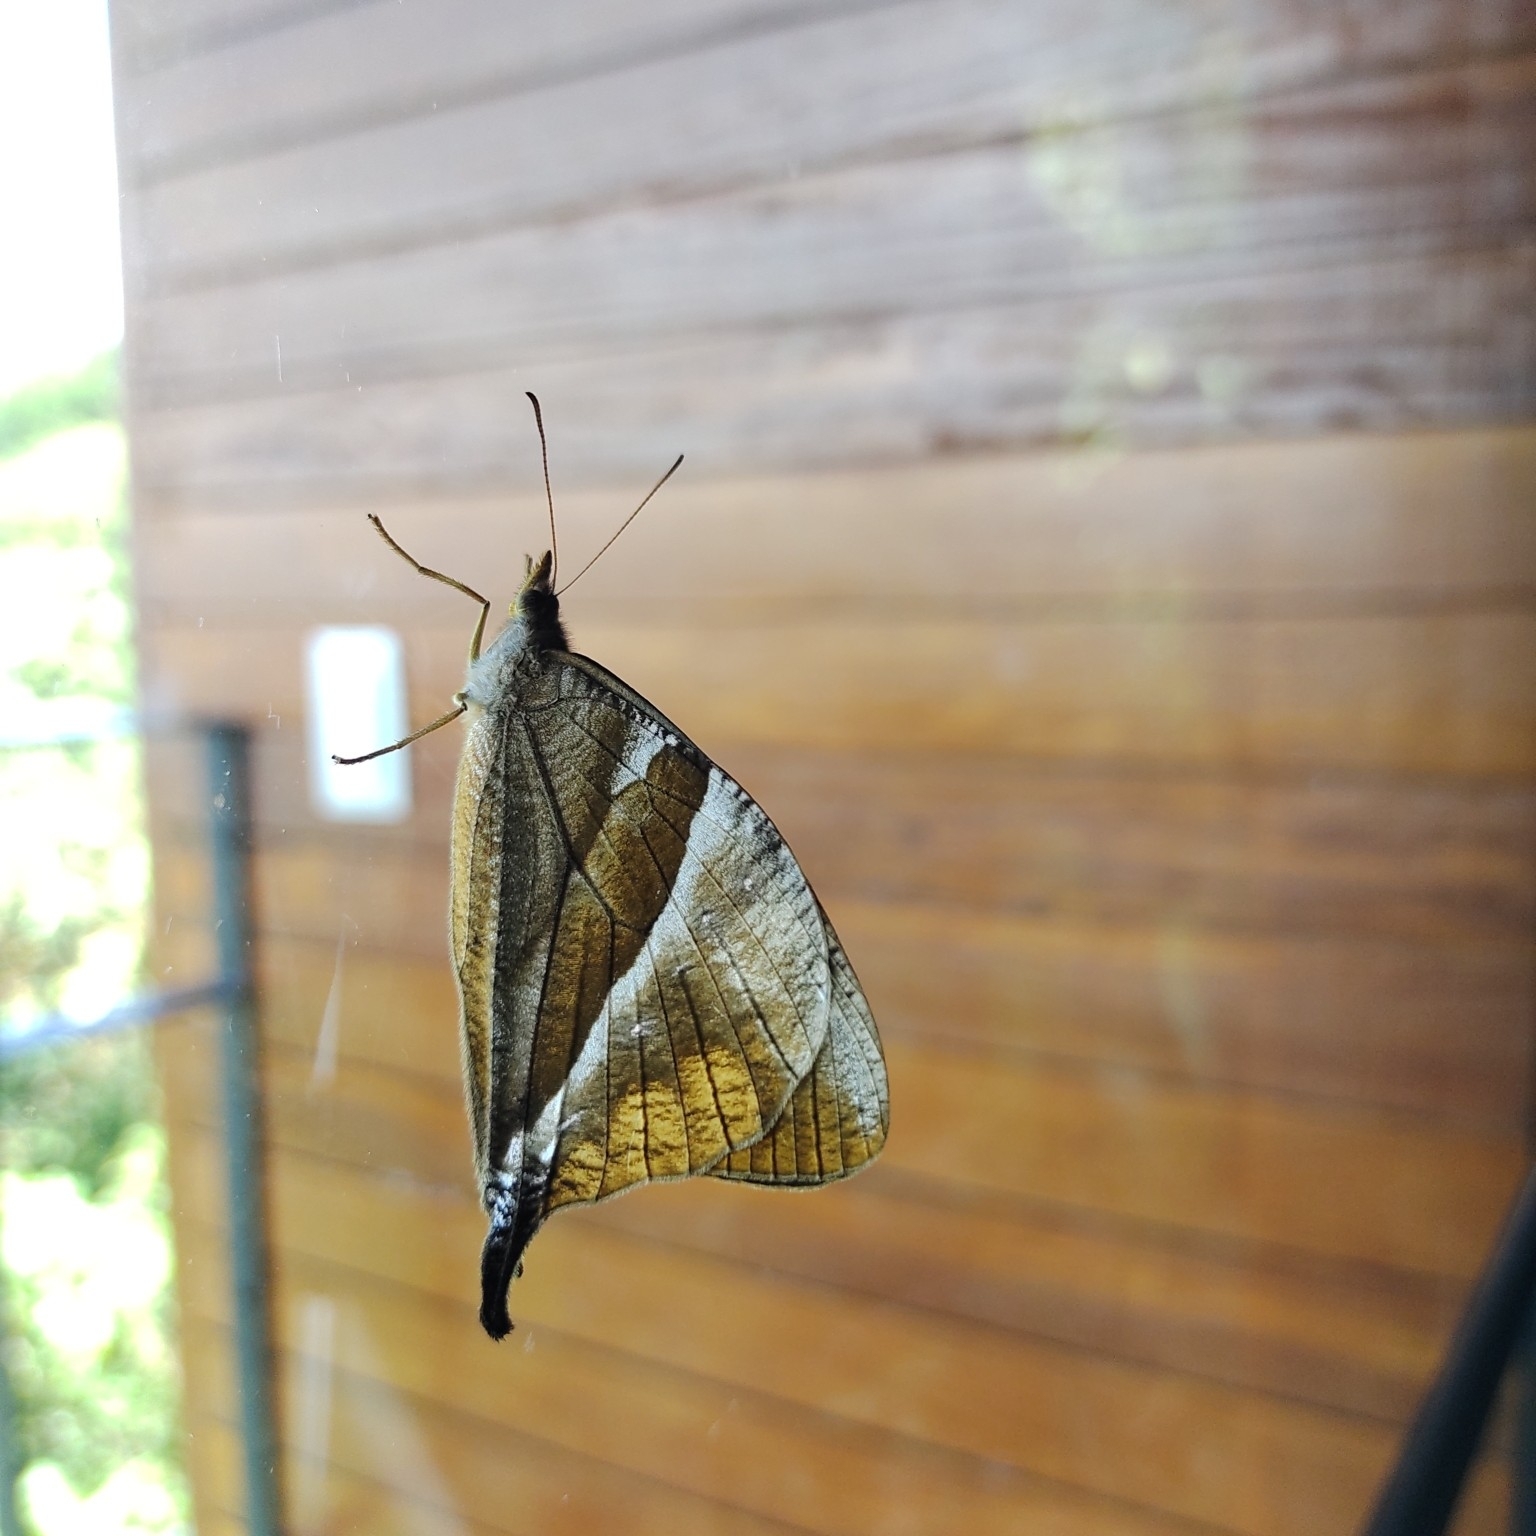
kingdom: Animalia
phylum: Arthropoda
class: Insecta
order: Lepidoptera
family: Nymphalidae
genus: Corades
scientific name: Corades enyo
